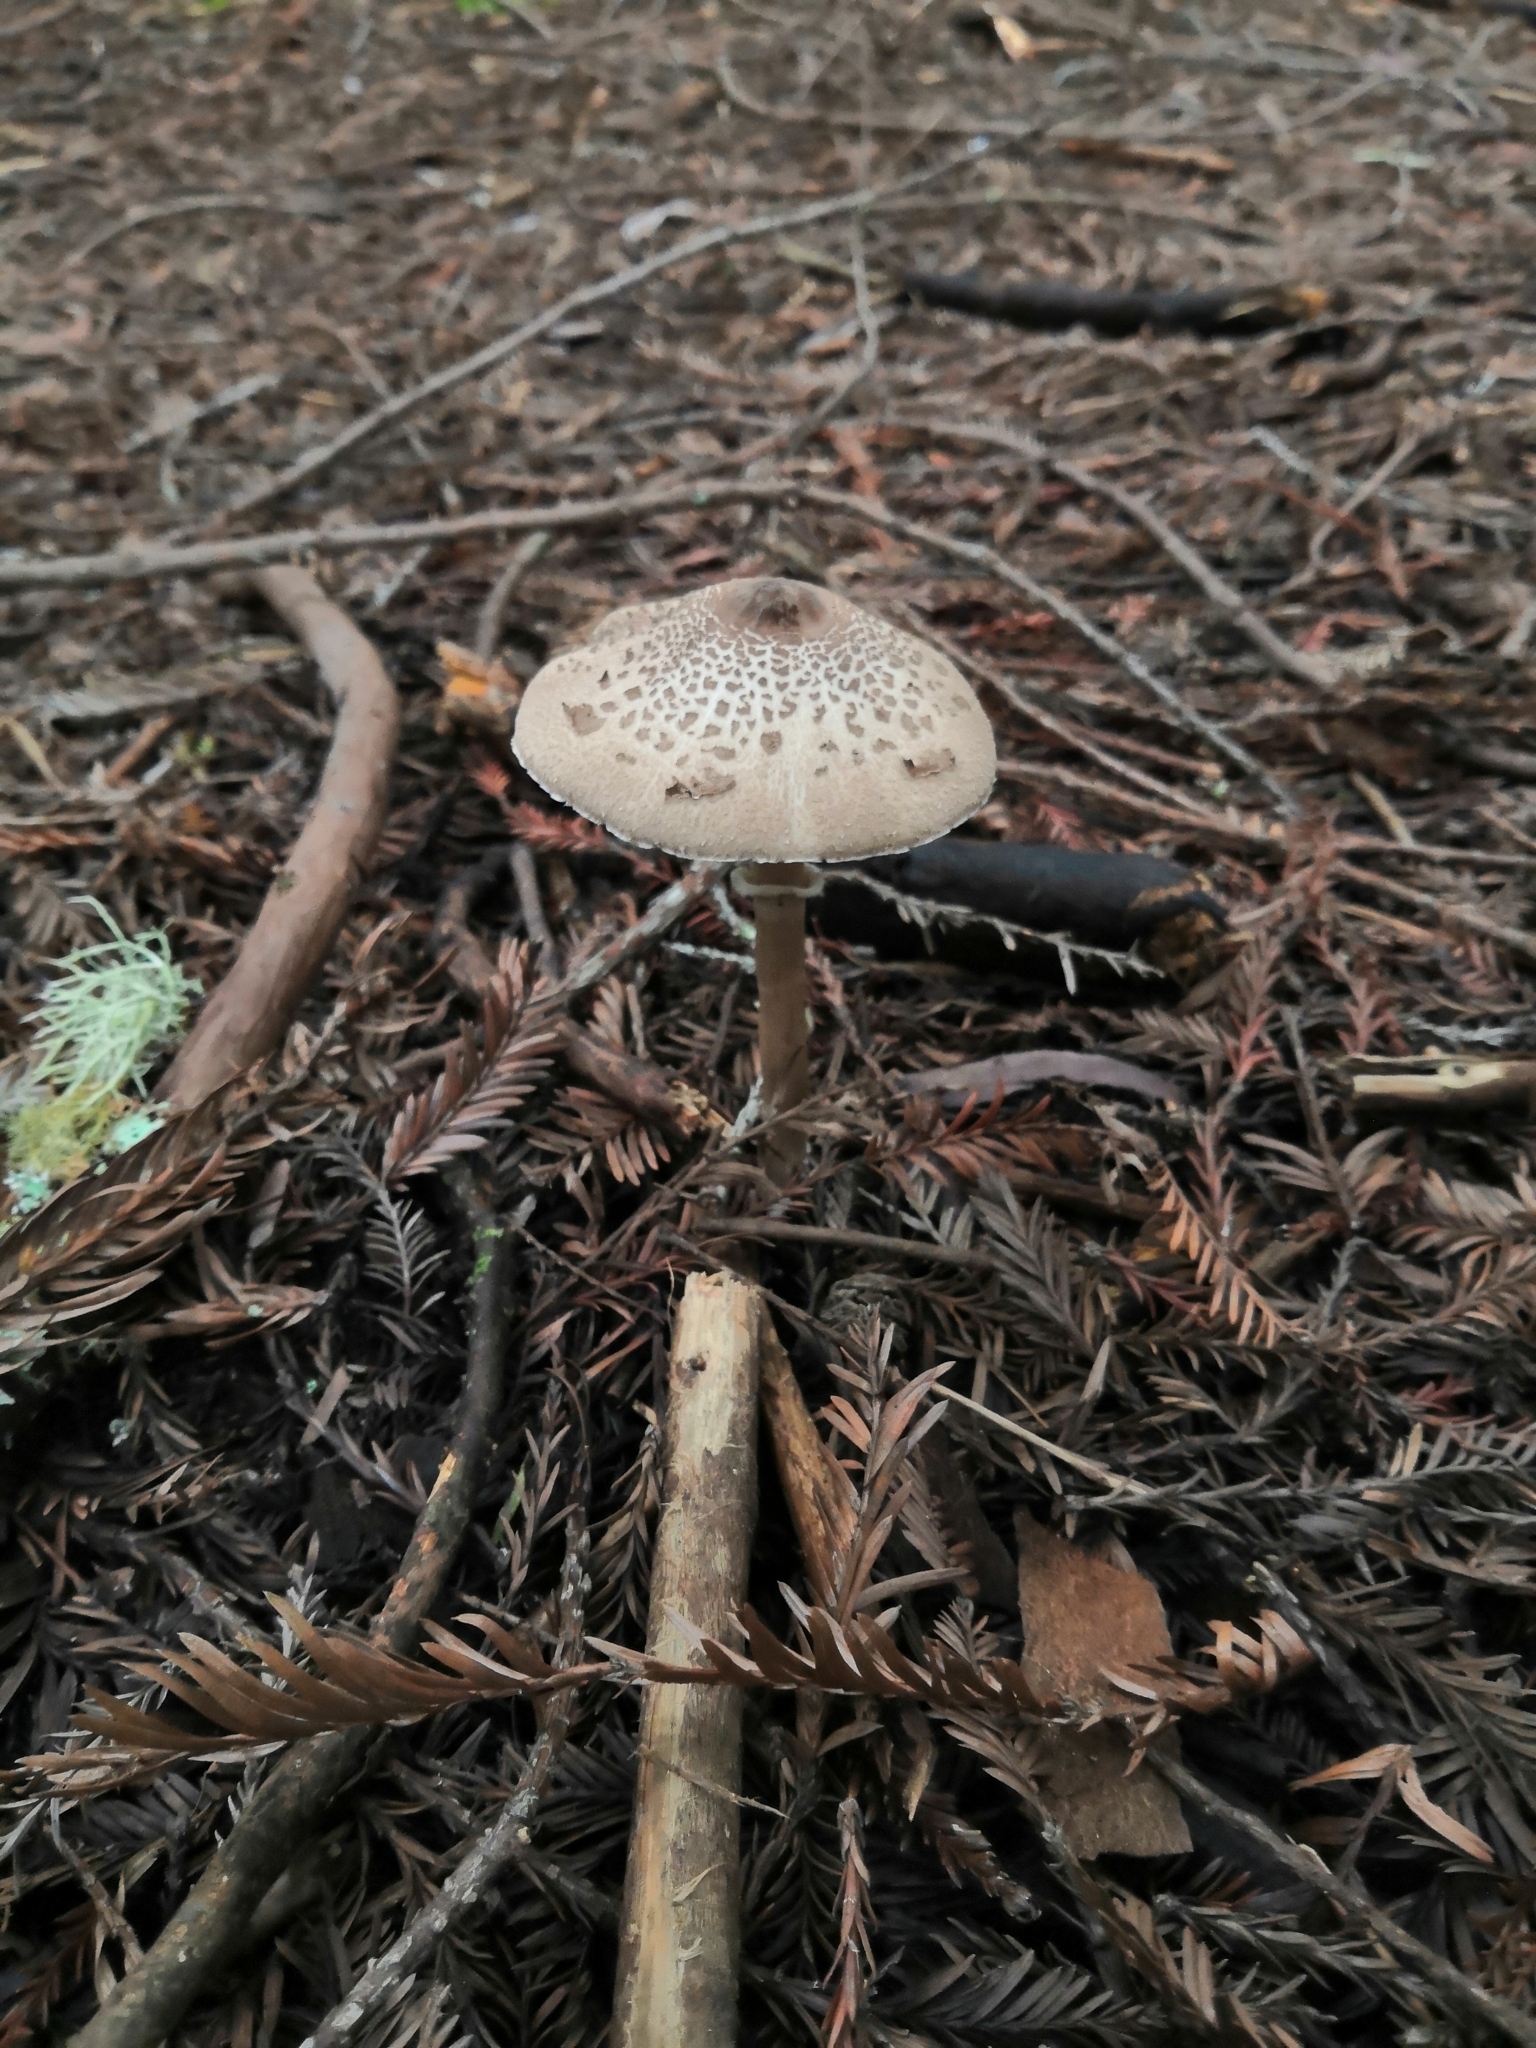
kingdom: Fungi
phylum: Basidiomycota
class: Agaricomycetes
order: Agaricales
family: Agaricaceae
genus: Macrolepiota
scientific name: Macrolepiota clelandii
